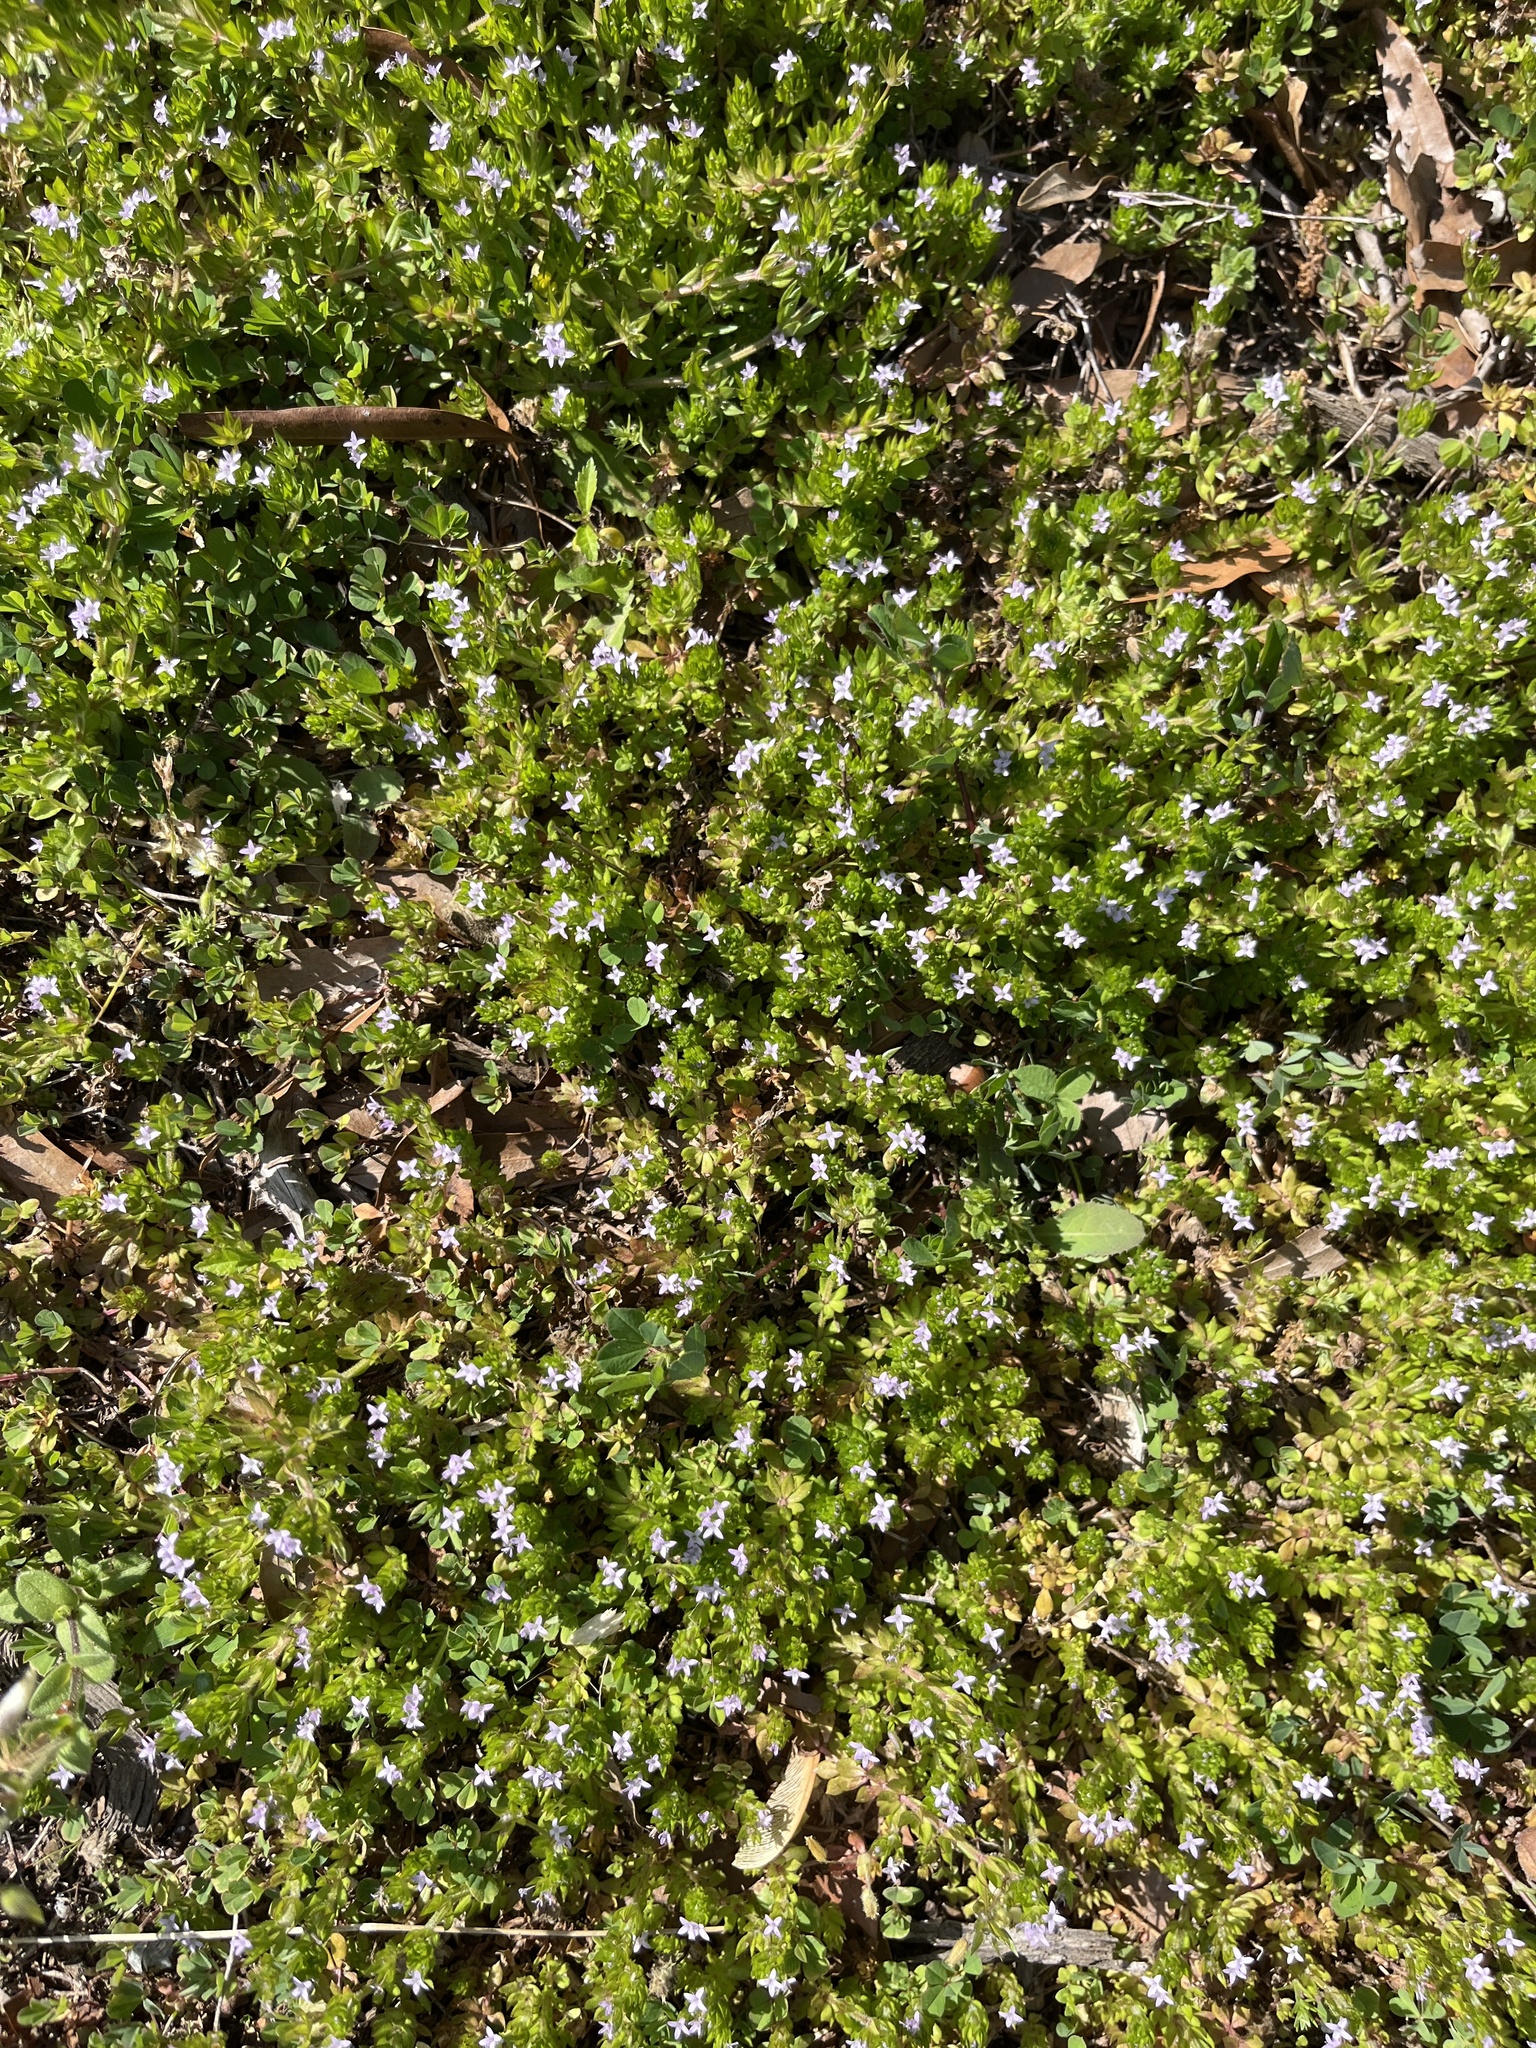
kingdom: Plantae
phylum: Tracheophyta
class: Magnoliopsida
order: Gentianales
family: Rubiaceae
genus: Sherardia
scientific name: Sherardia arvensis
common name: Field madder
